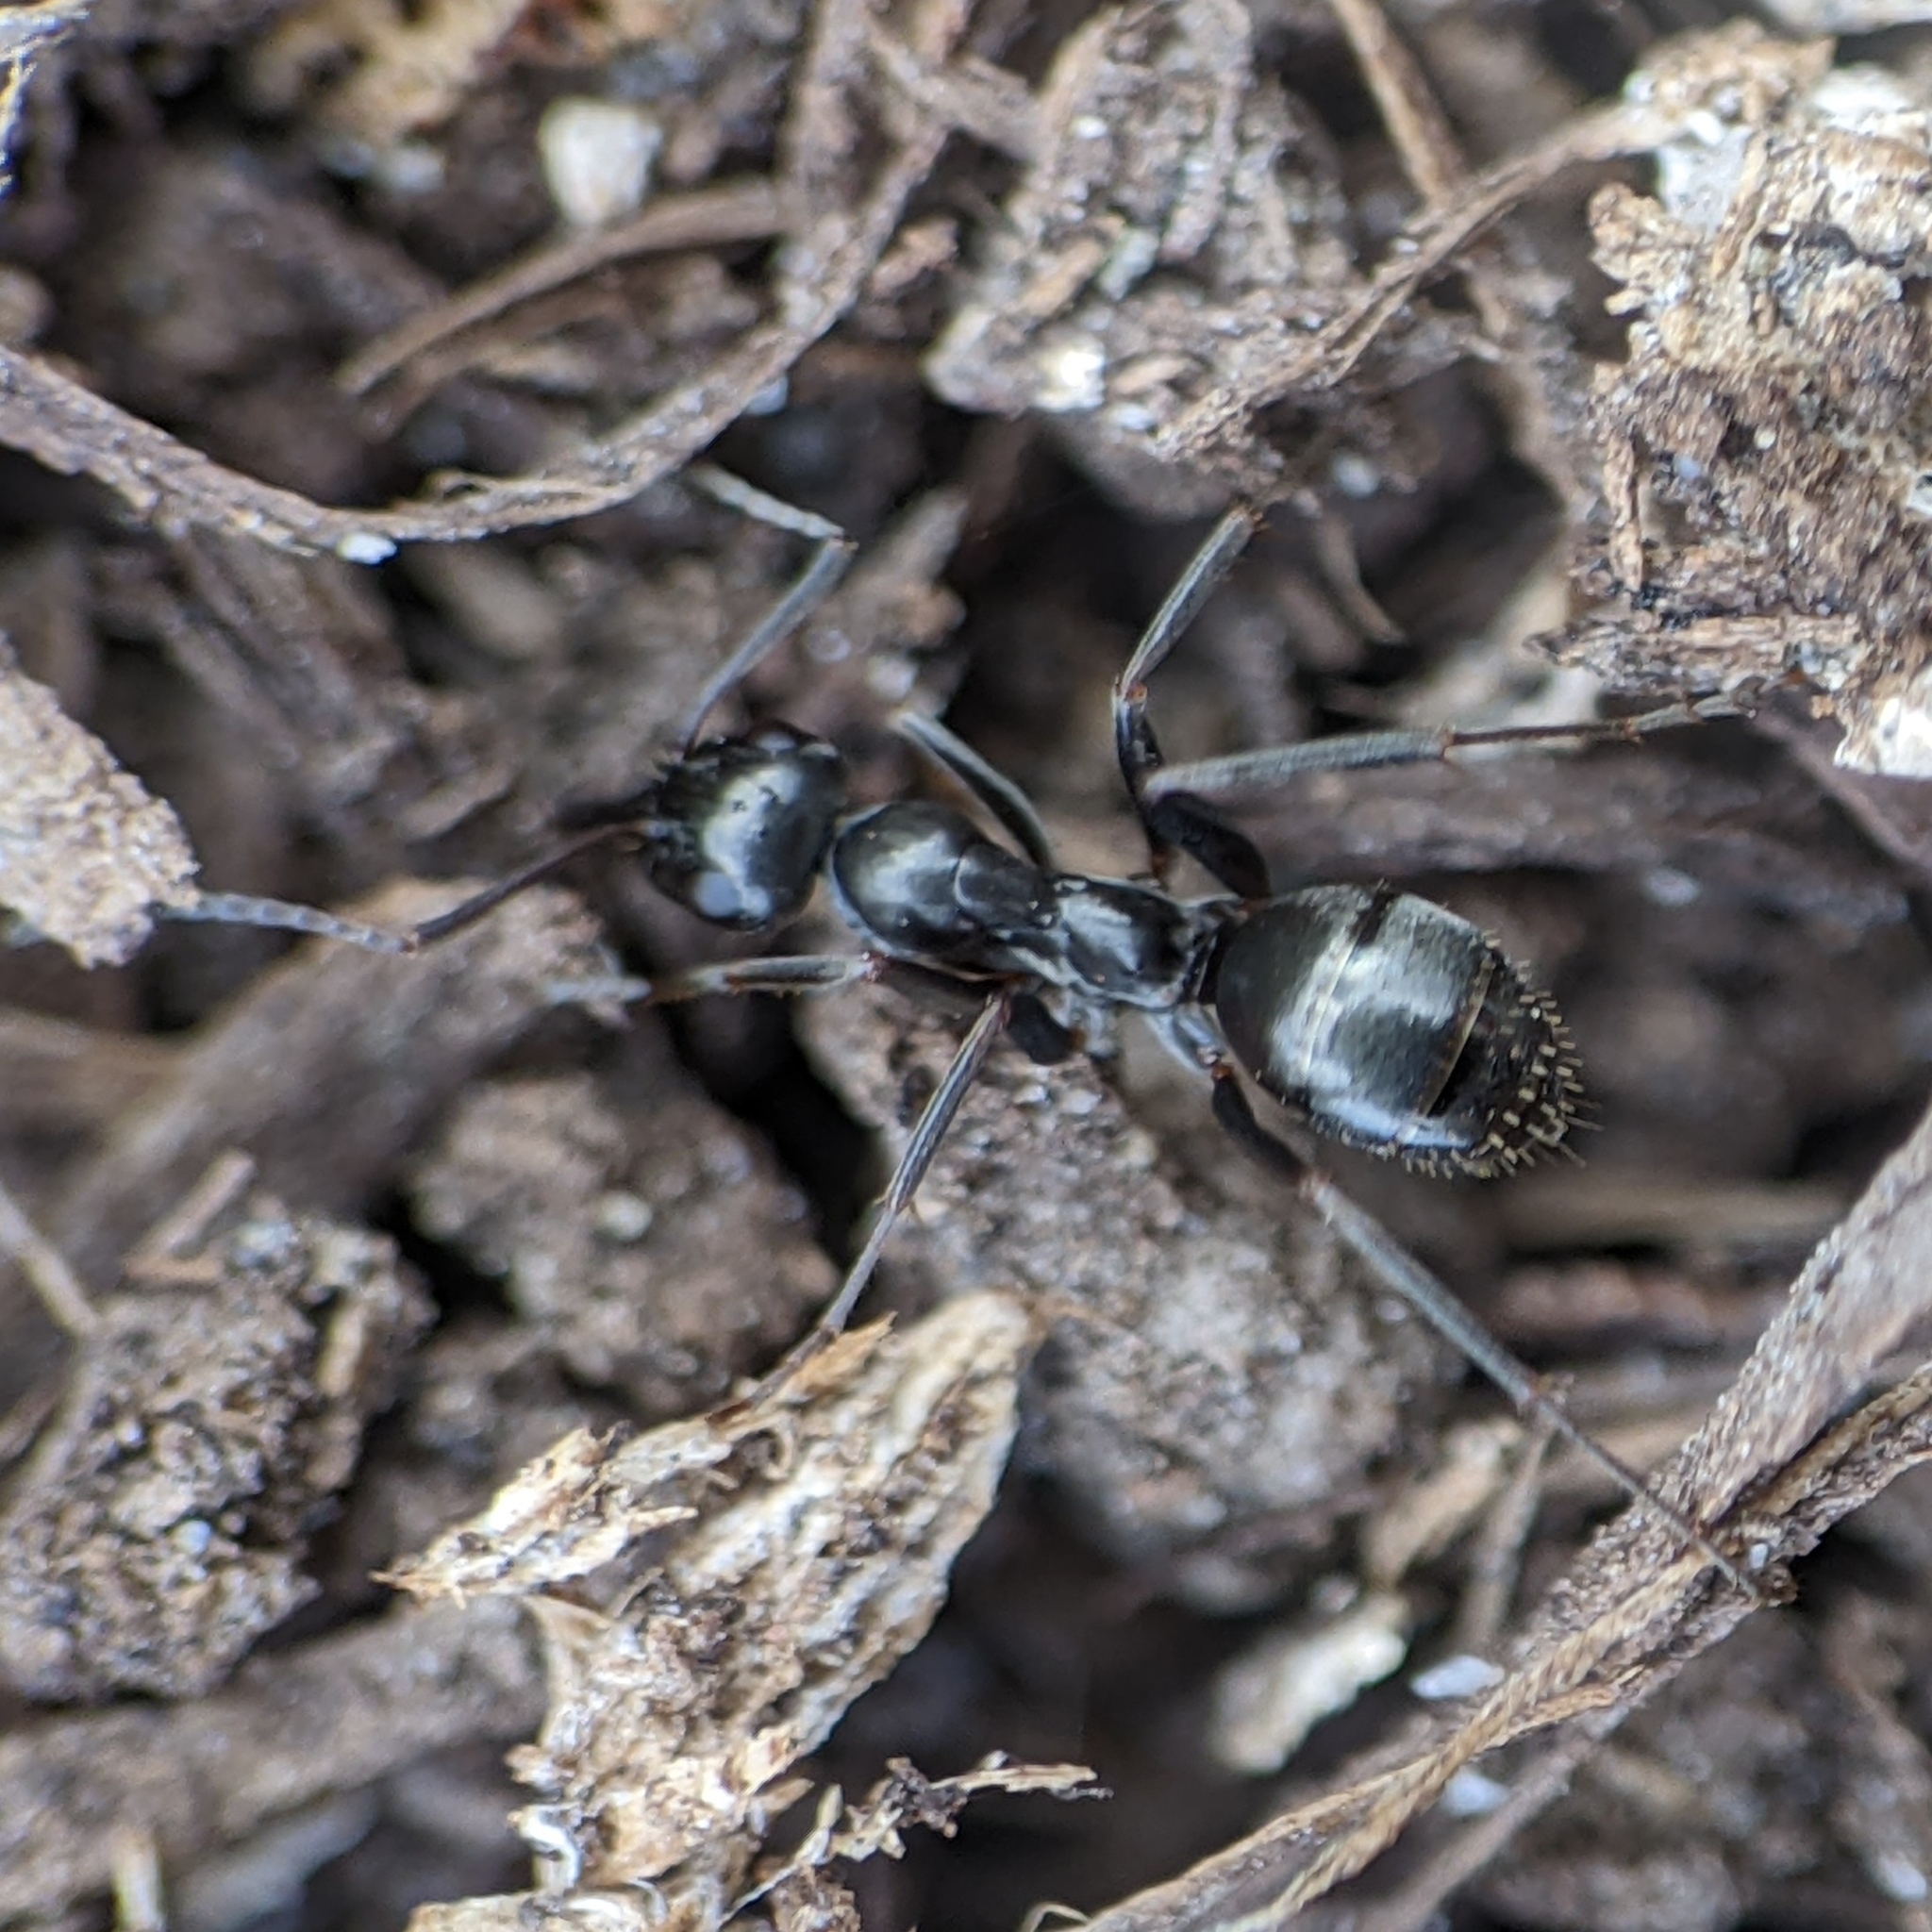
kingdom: Animalia
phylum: Arthropoda
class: Insecta
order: Hymenoptera
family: Formicidae
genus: Formica
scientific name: Formica
